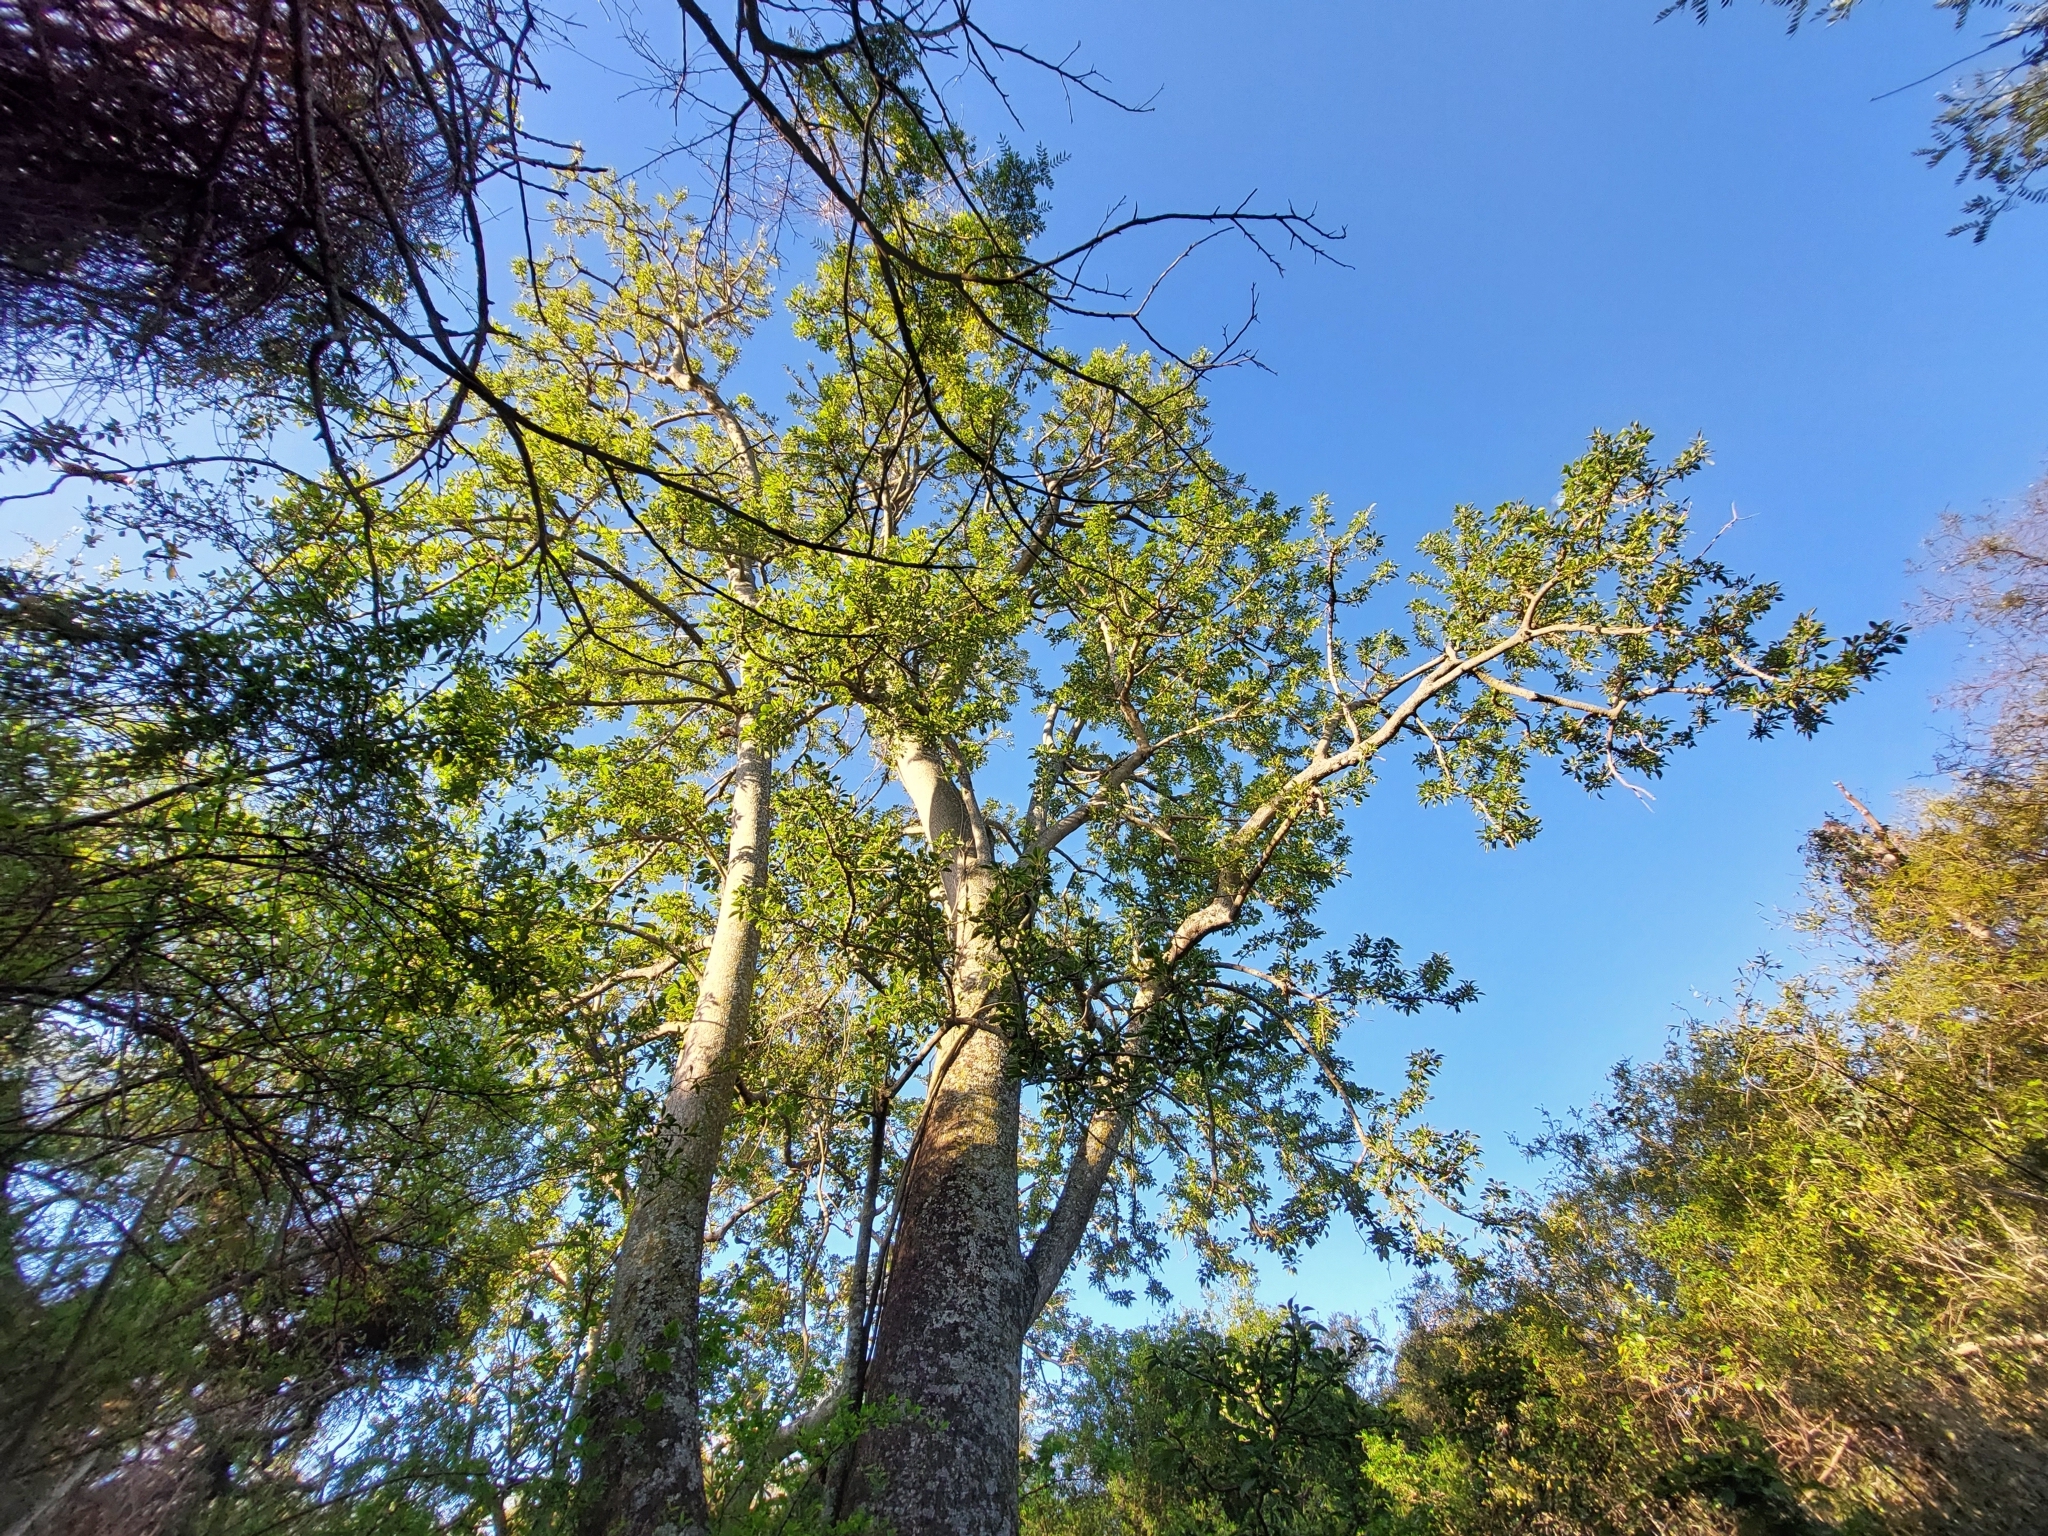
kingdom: Plantae
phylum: Tracheophyta
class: Magnoliopsida
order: Caryophyllales
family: Phytolaccaceae
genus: Phytolacca
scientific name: Phytolacca dioica
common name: Pokeweed
